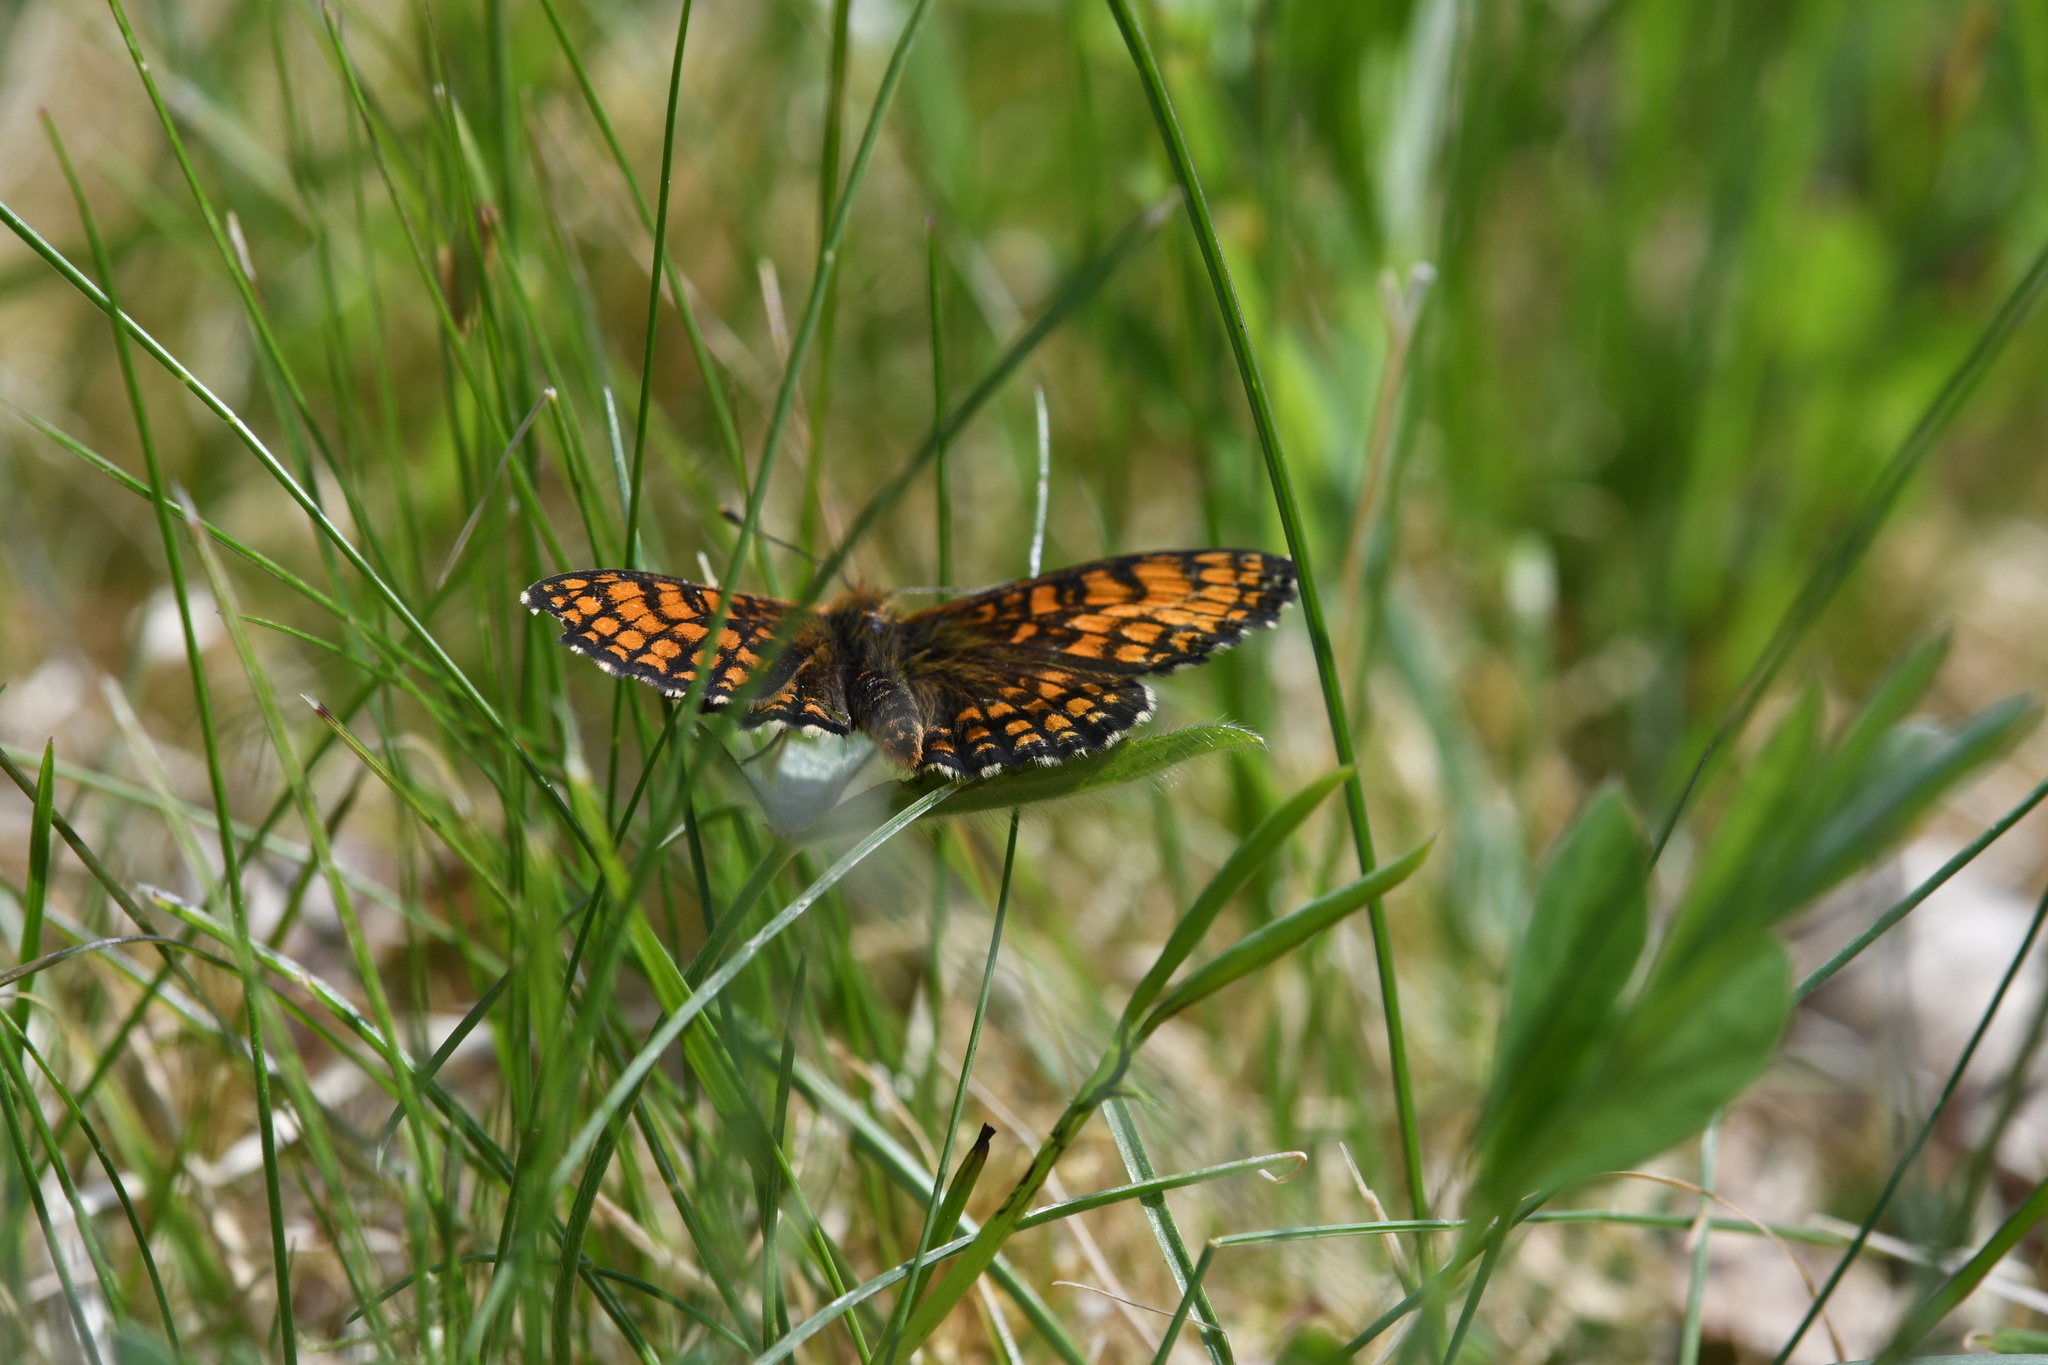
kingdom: Animalia
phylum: Arthropoda
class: Insecta
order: Lepidoptera
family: Nymphalidae
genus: Melitaea
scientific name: Melitaea athalia
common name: Heath fritillary
